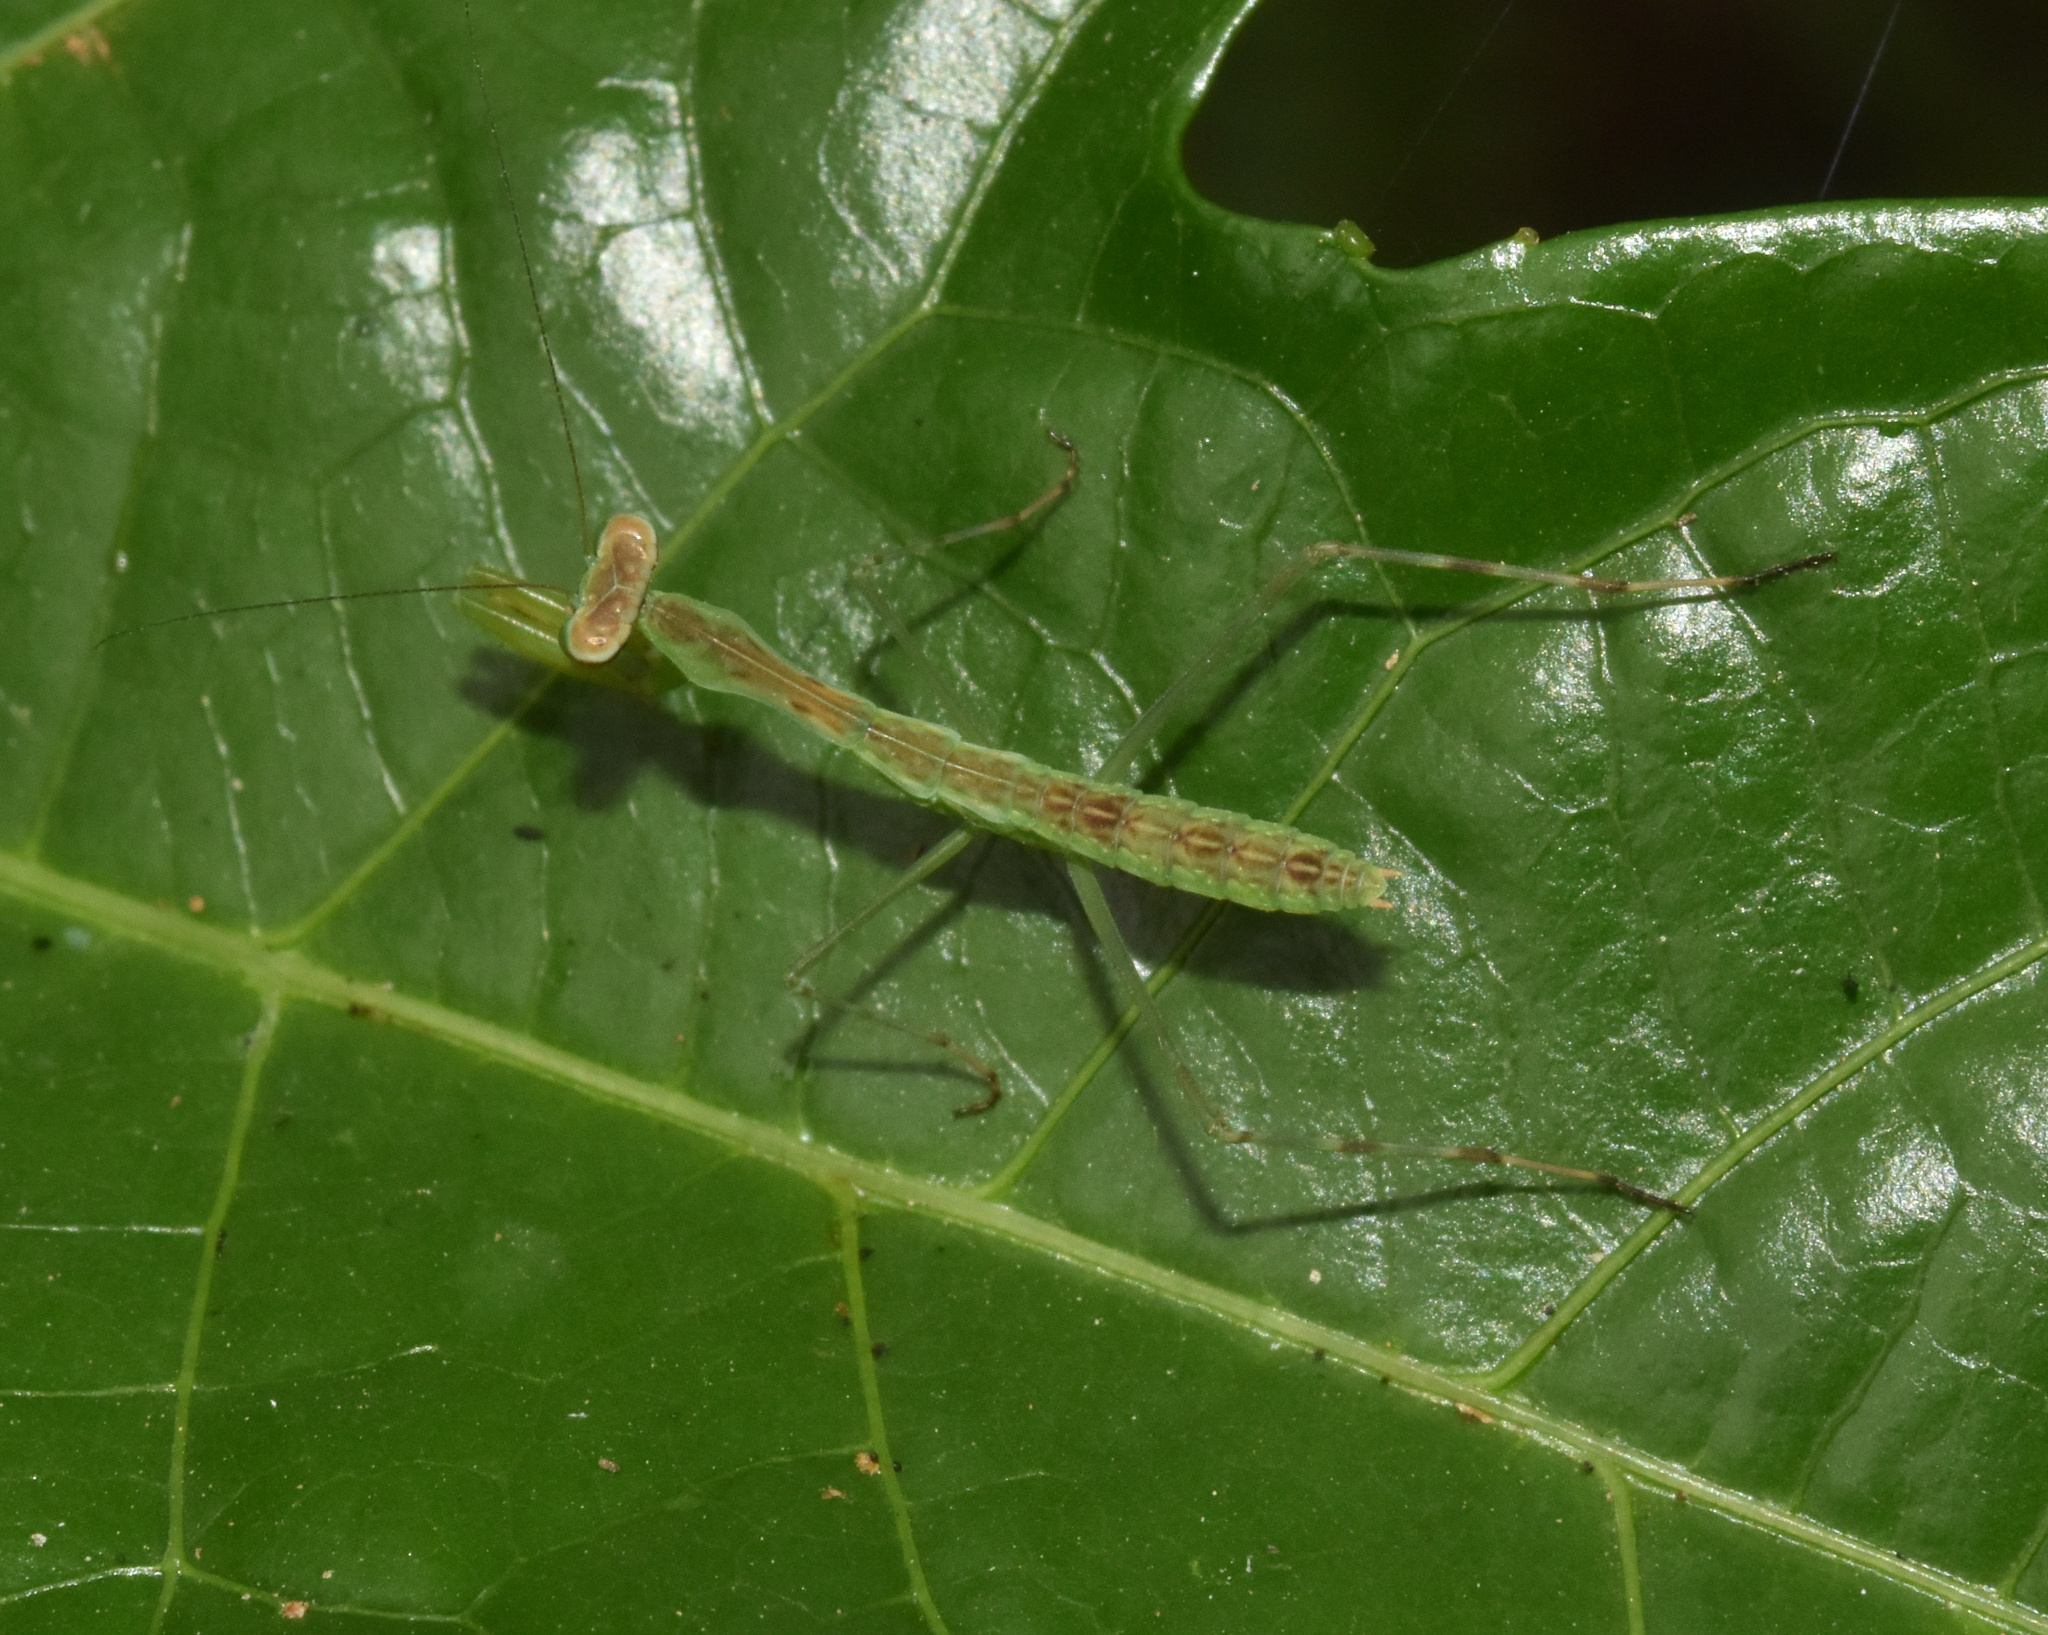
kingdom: Animalia
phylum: Arthropoda
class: Insecta
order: Mantodea
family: Mantidae
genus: Polyspilota
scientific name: Polyspilota aeruginosa
